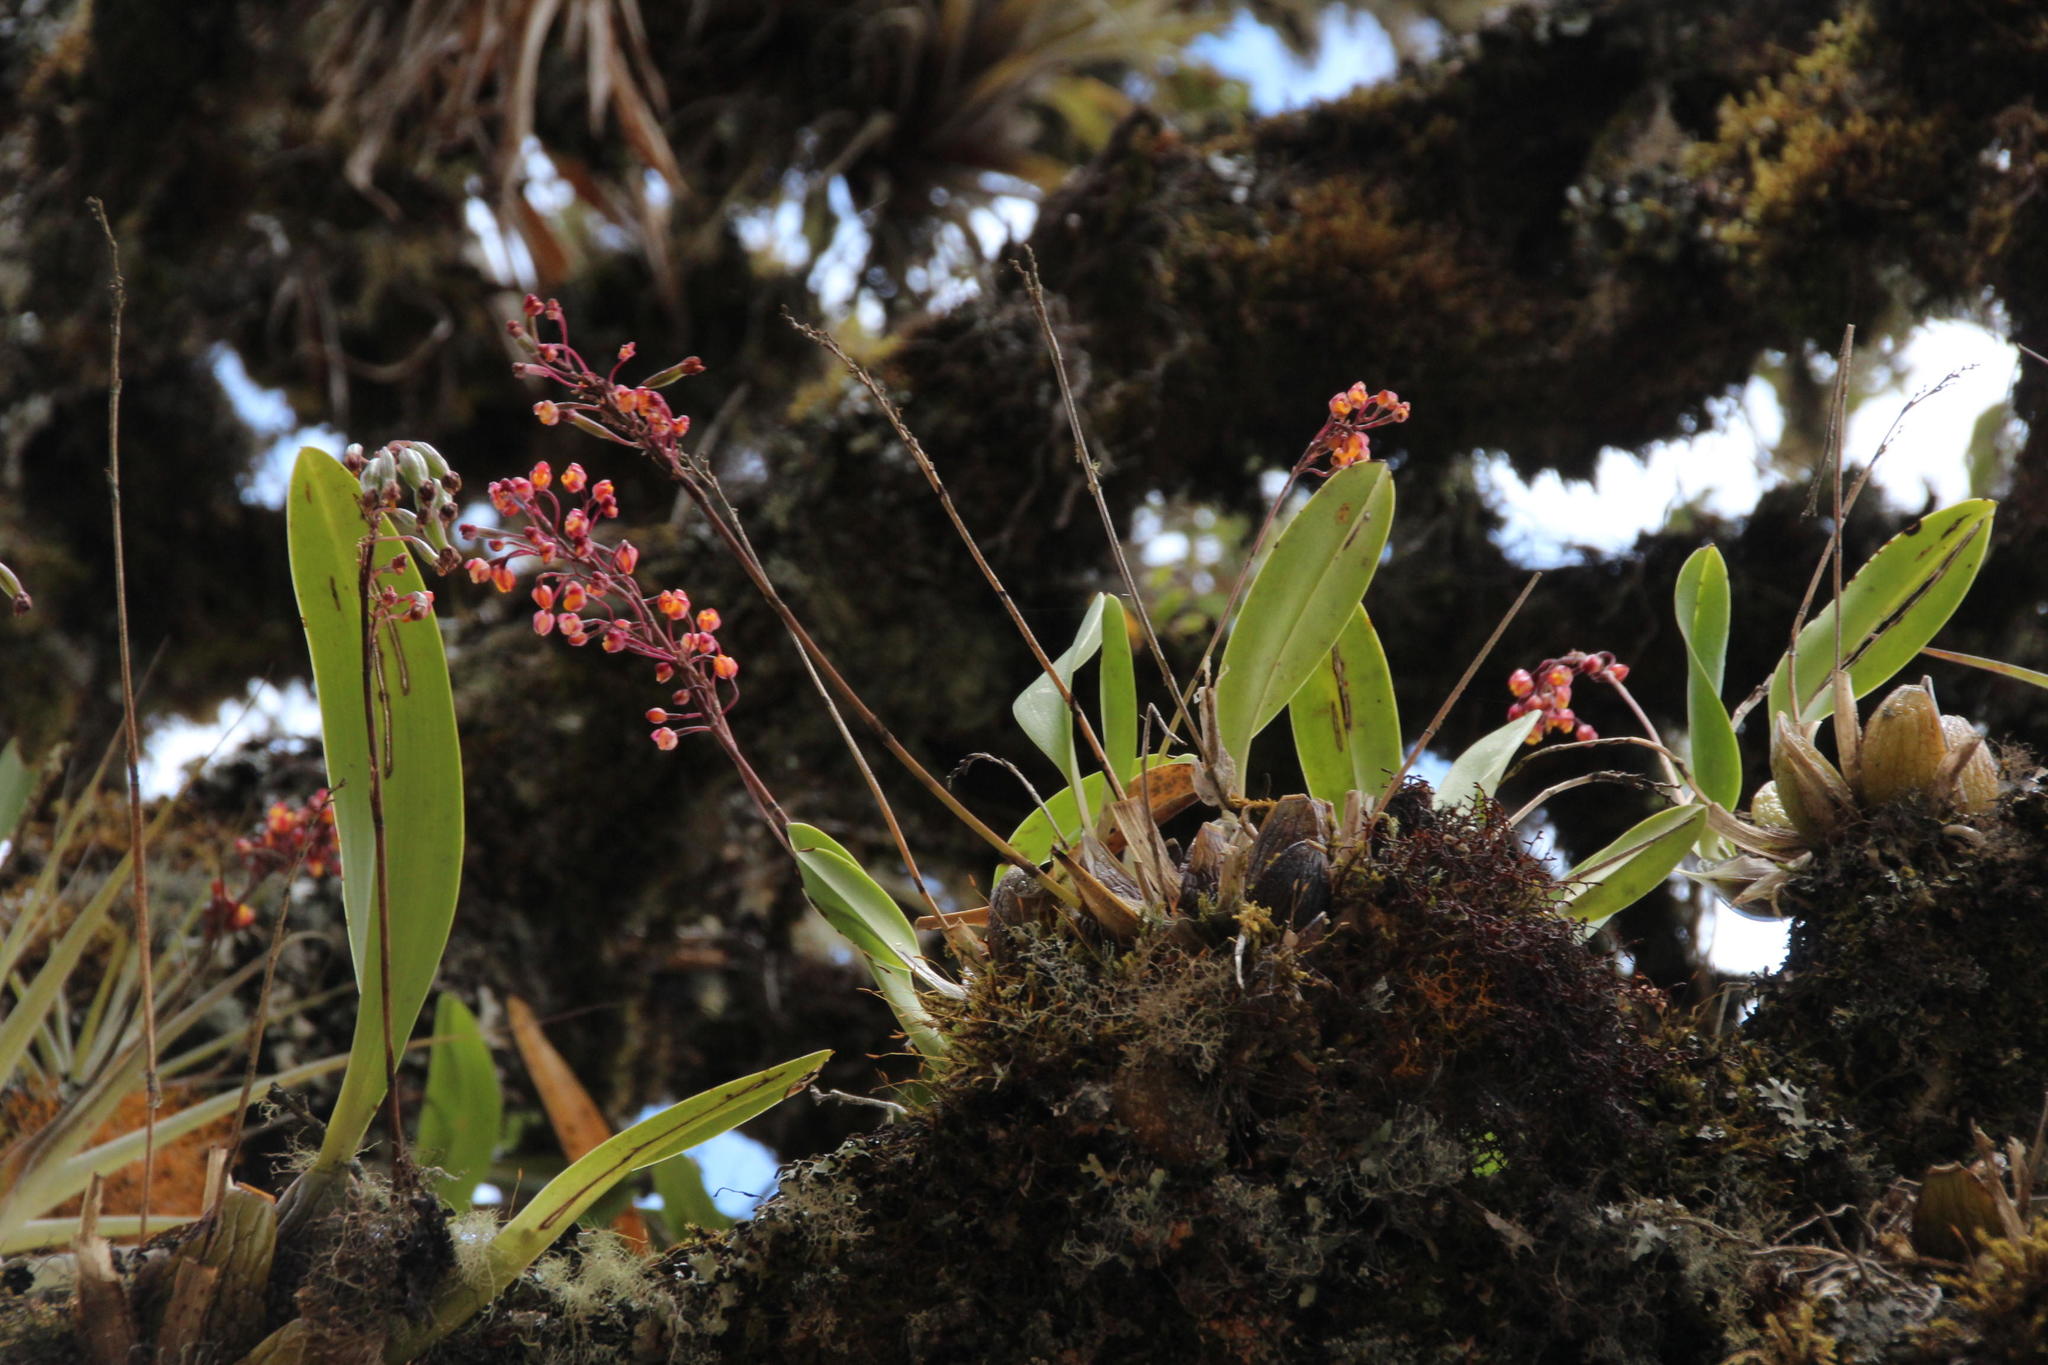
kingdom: Plantae
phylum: Tracheophyta
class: Liliopsida
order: Asparagales
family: Orchidaceae
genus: Cyrtochilum
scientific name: Cyrtochilum rhodoneurum
